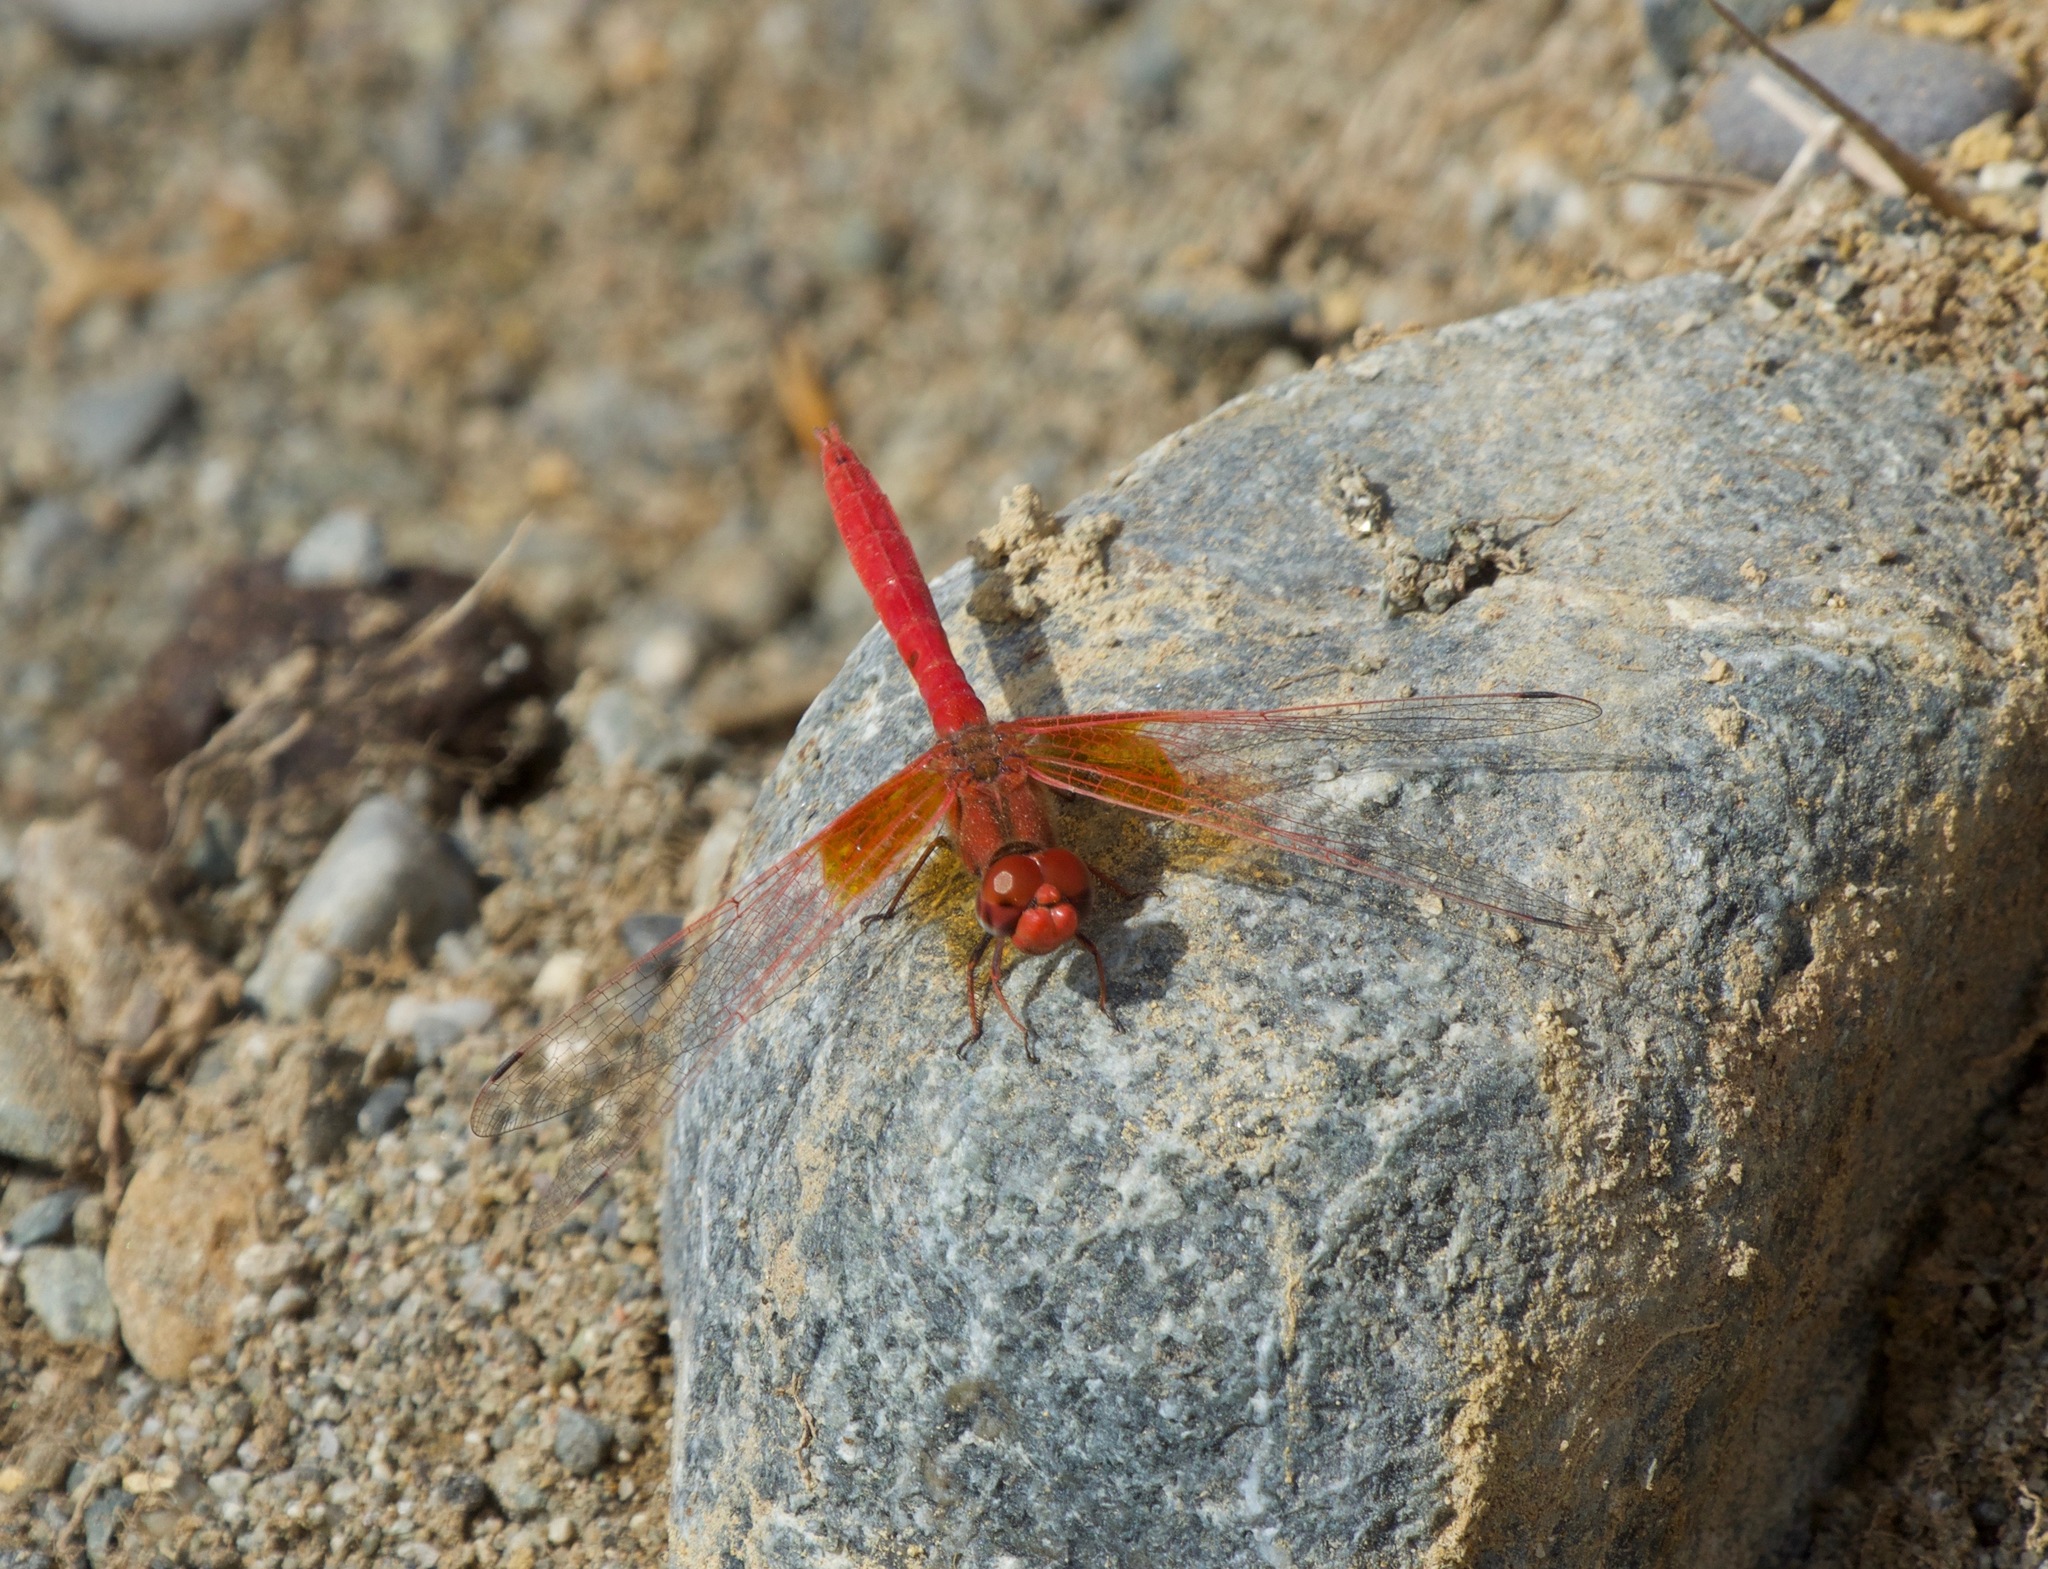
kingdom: Animalia
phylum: Arthropoda
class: Insecta
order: Odonata
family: Libellulidae
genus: Trithemis
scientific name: Trithemis kirbyi
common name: Kirby's dropwing
